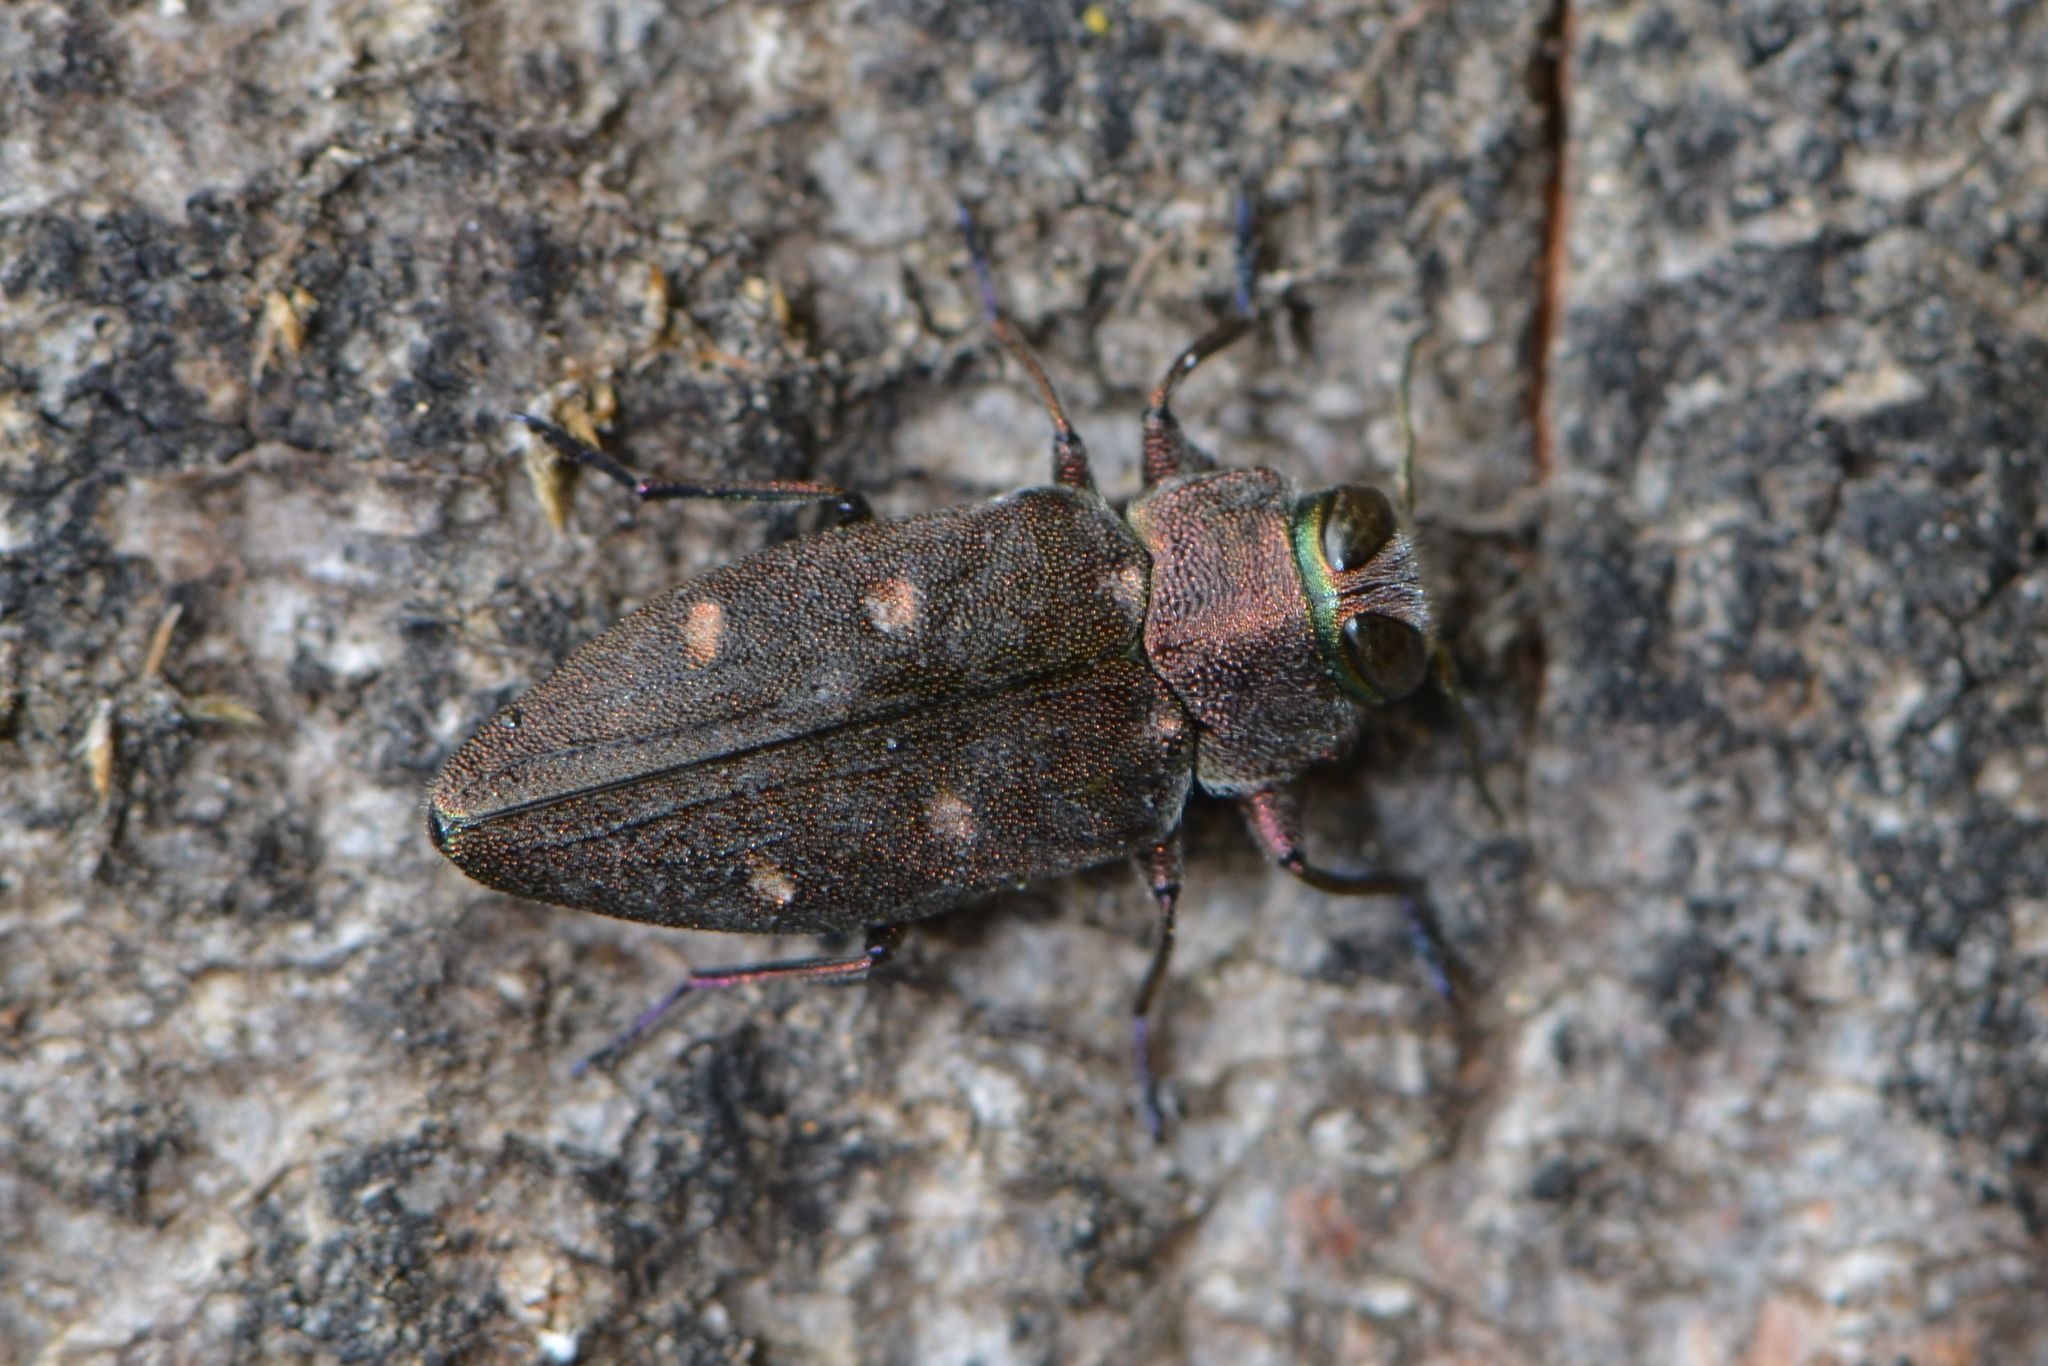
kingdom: Animalia
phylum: Arthropoda
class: Insecta
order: Coleoptera
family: Buprestidae
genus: Chrysobothris
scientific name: Chrysobothris affinis
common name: Beetle
